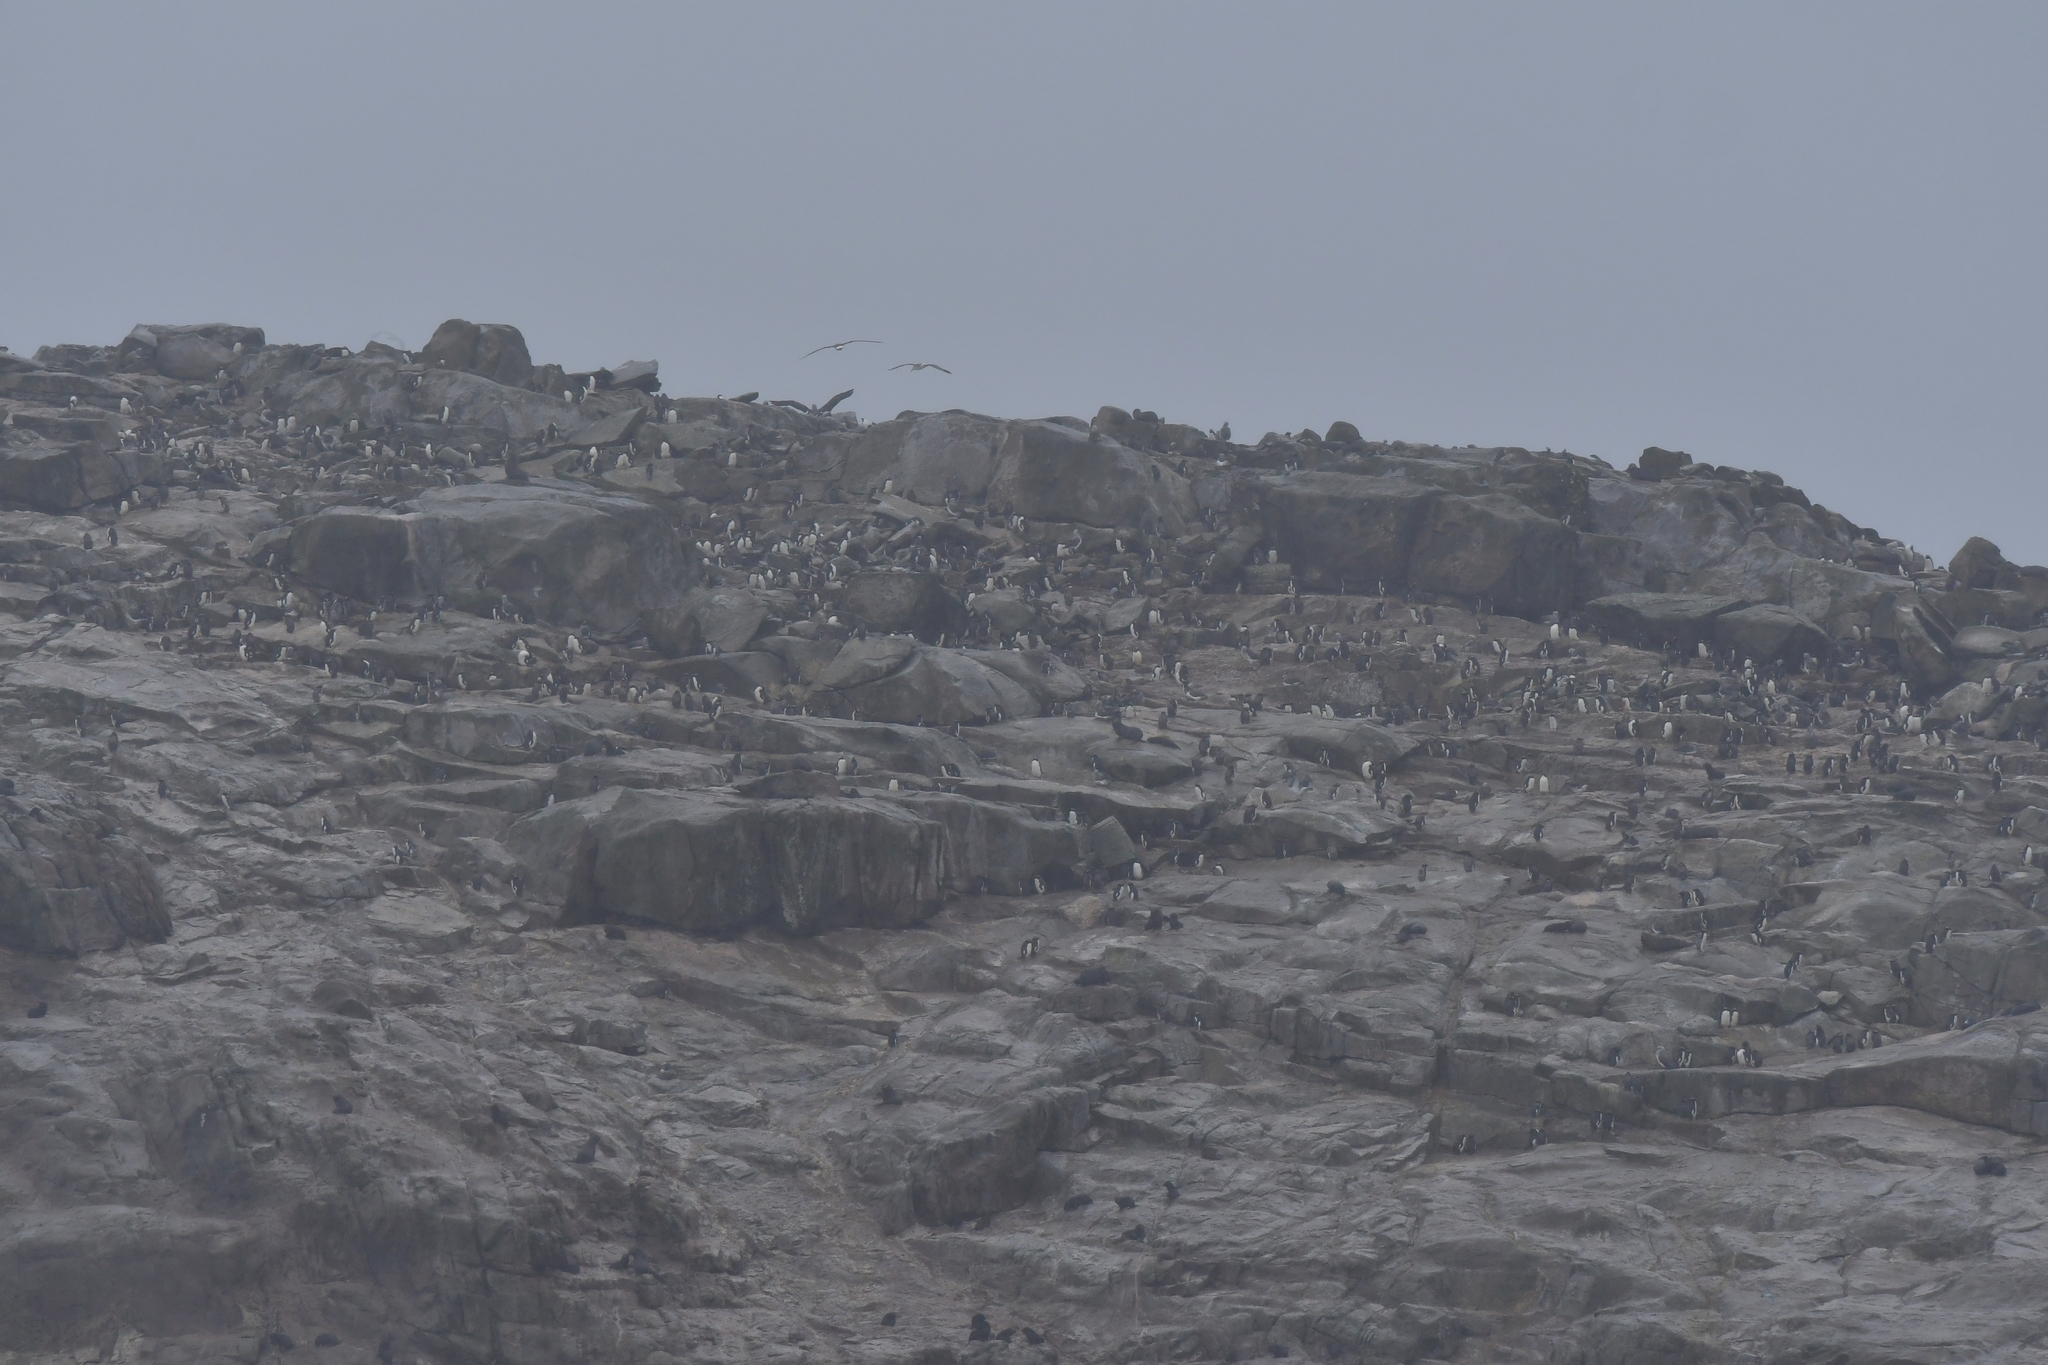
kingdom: Animalia
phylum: Chordata
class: Aves
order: Sphenisciformes
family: Spheniscidae
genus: Eudyptes
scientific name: Eudyptes sclateri
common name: Erect-crested penguin
